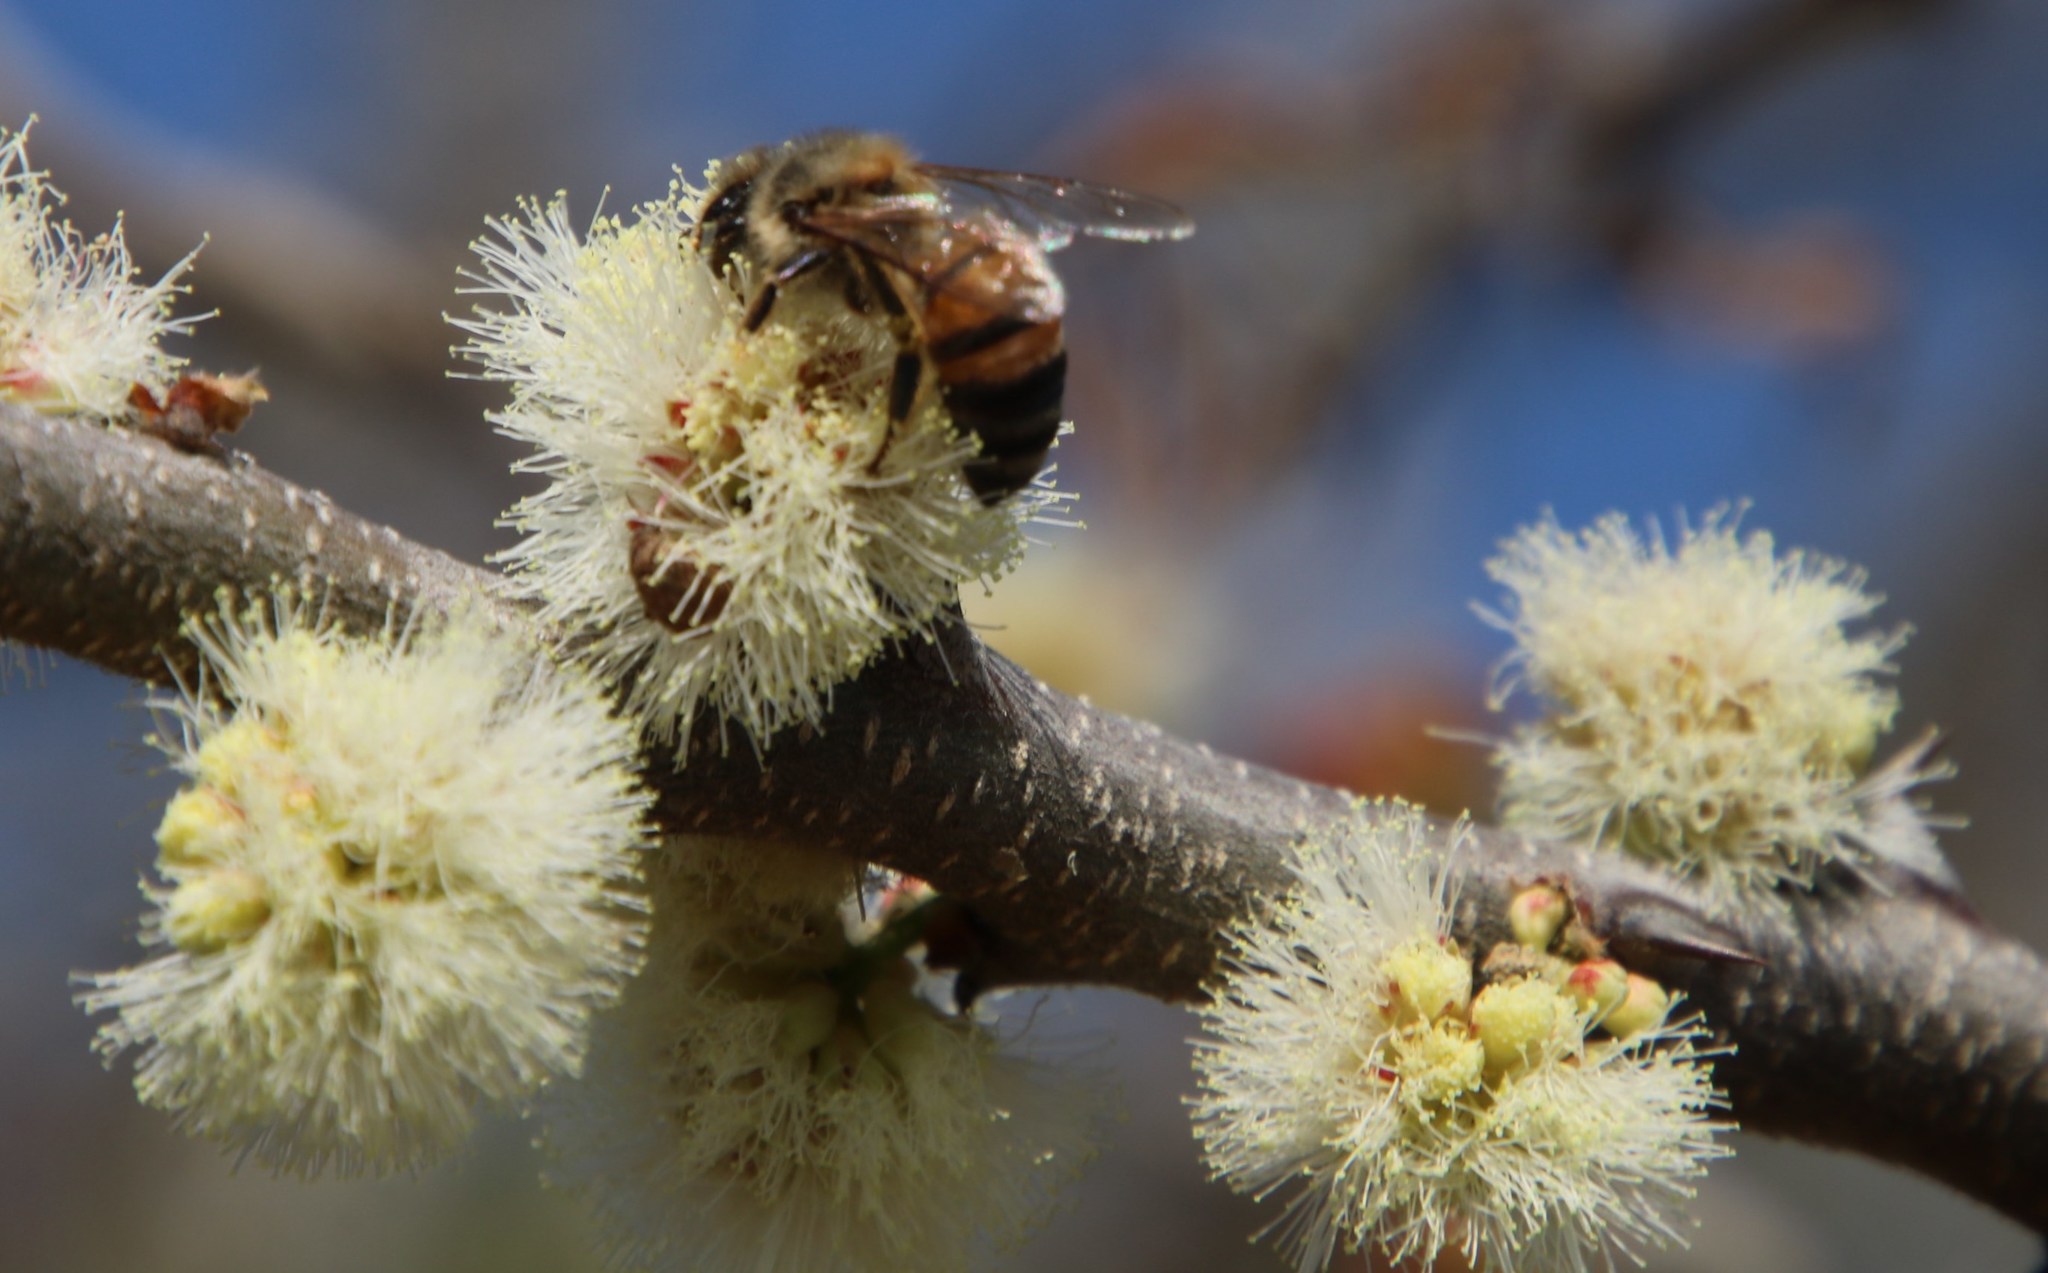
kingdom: Animalia
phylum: Arthropoda
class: Insecta
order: Hymenoptera
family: Apidae
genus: Apis
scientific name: Apis mellifera
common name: Honey bee
